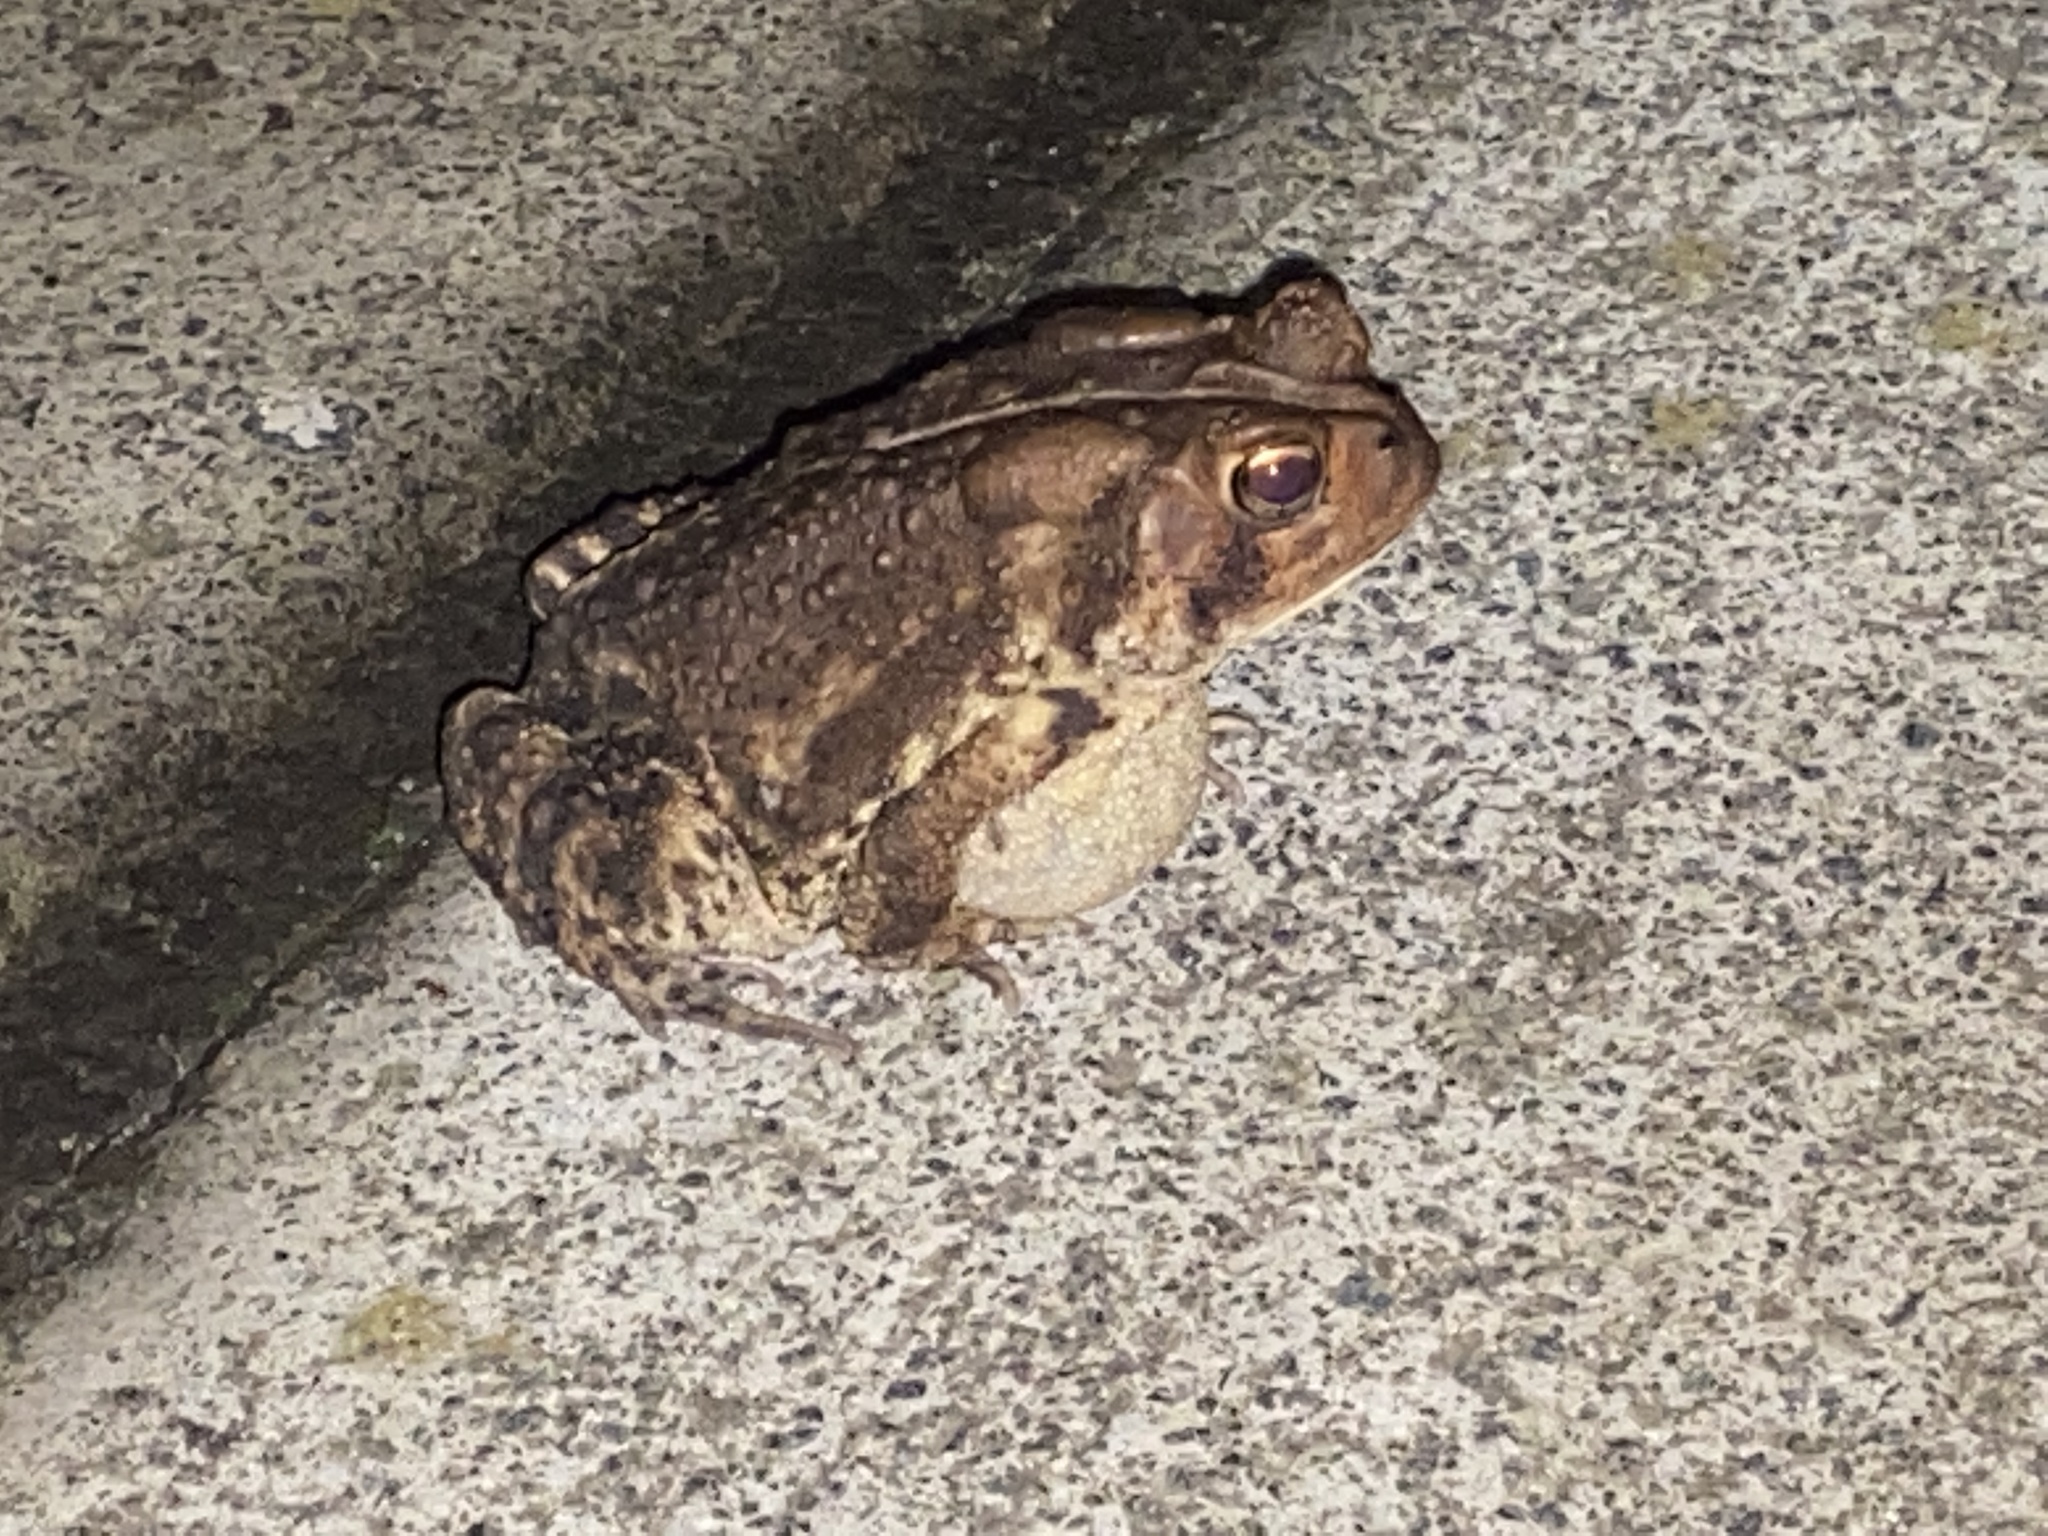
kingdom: Animalia
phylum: Chordata
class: Amphibia
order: Anura
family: Bufonidae
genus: Anaxyrus
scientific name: Anaxyrus americanus
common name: American toad
